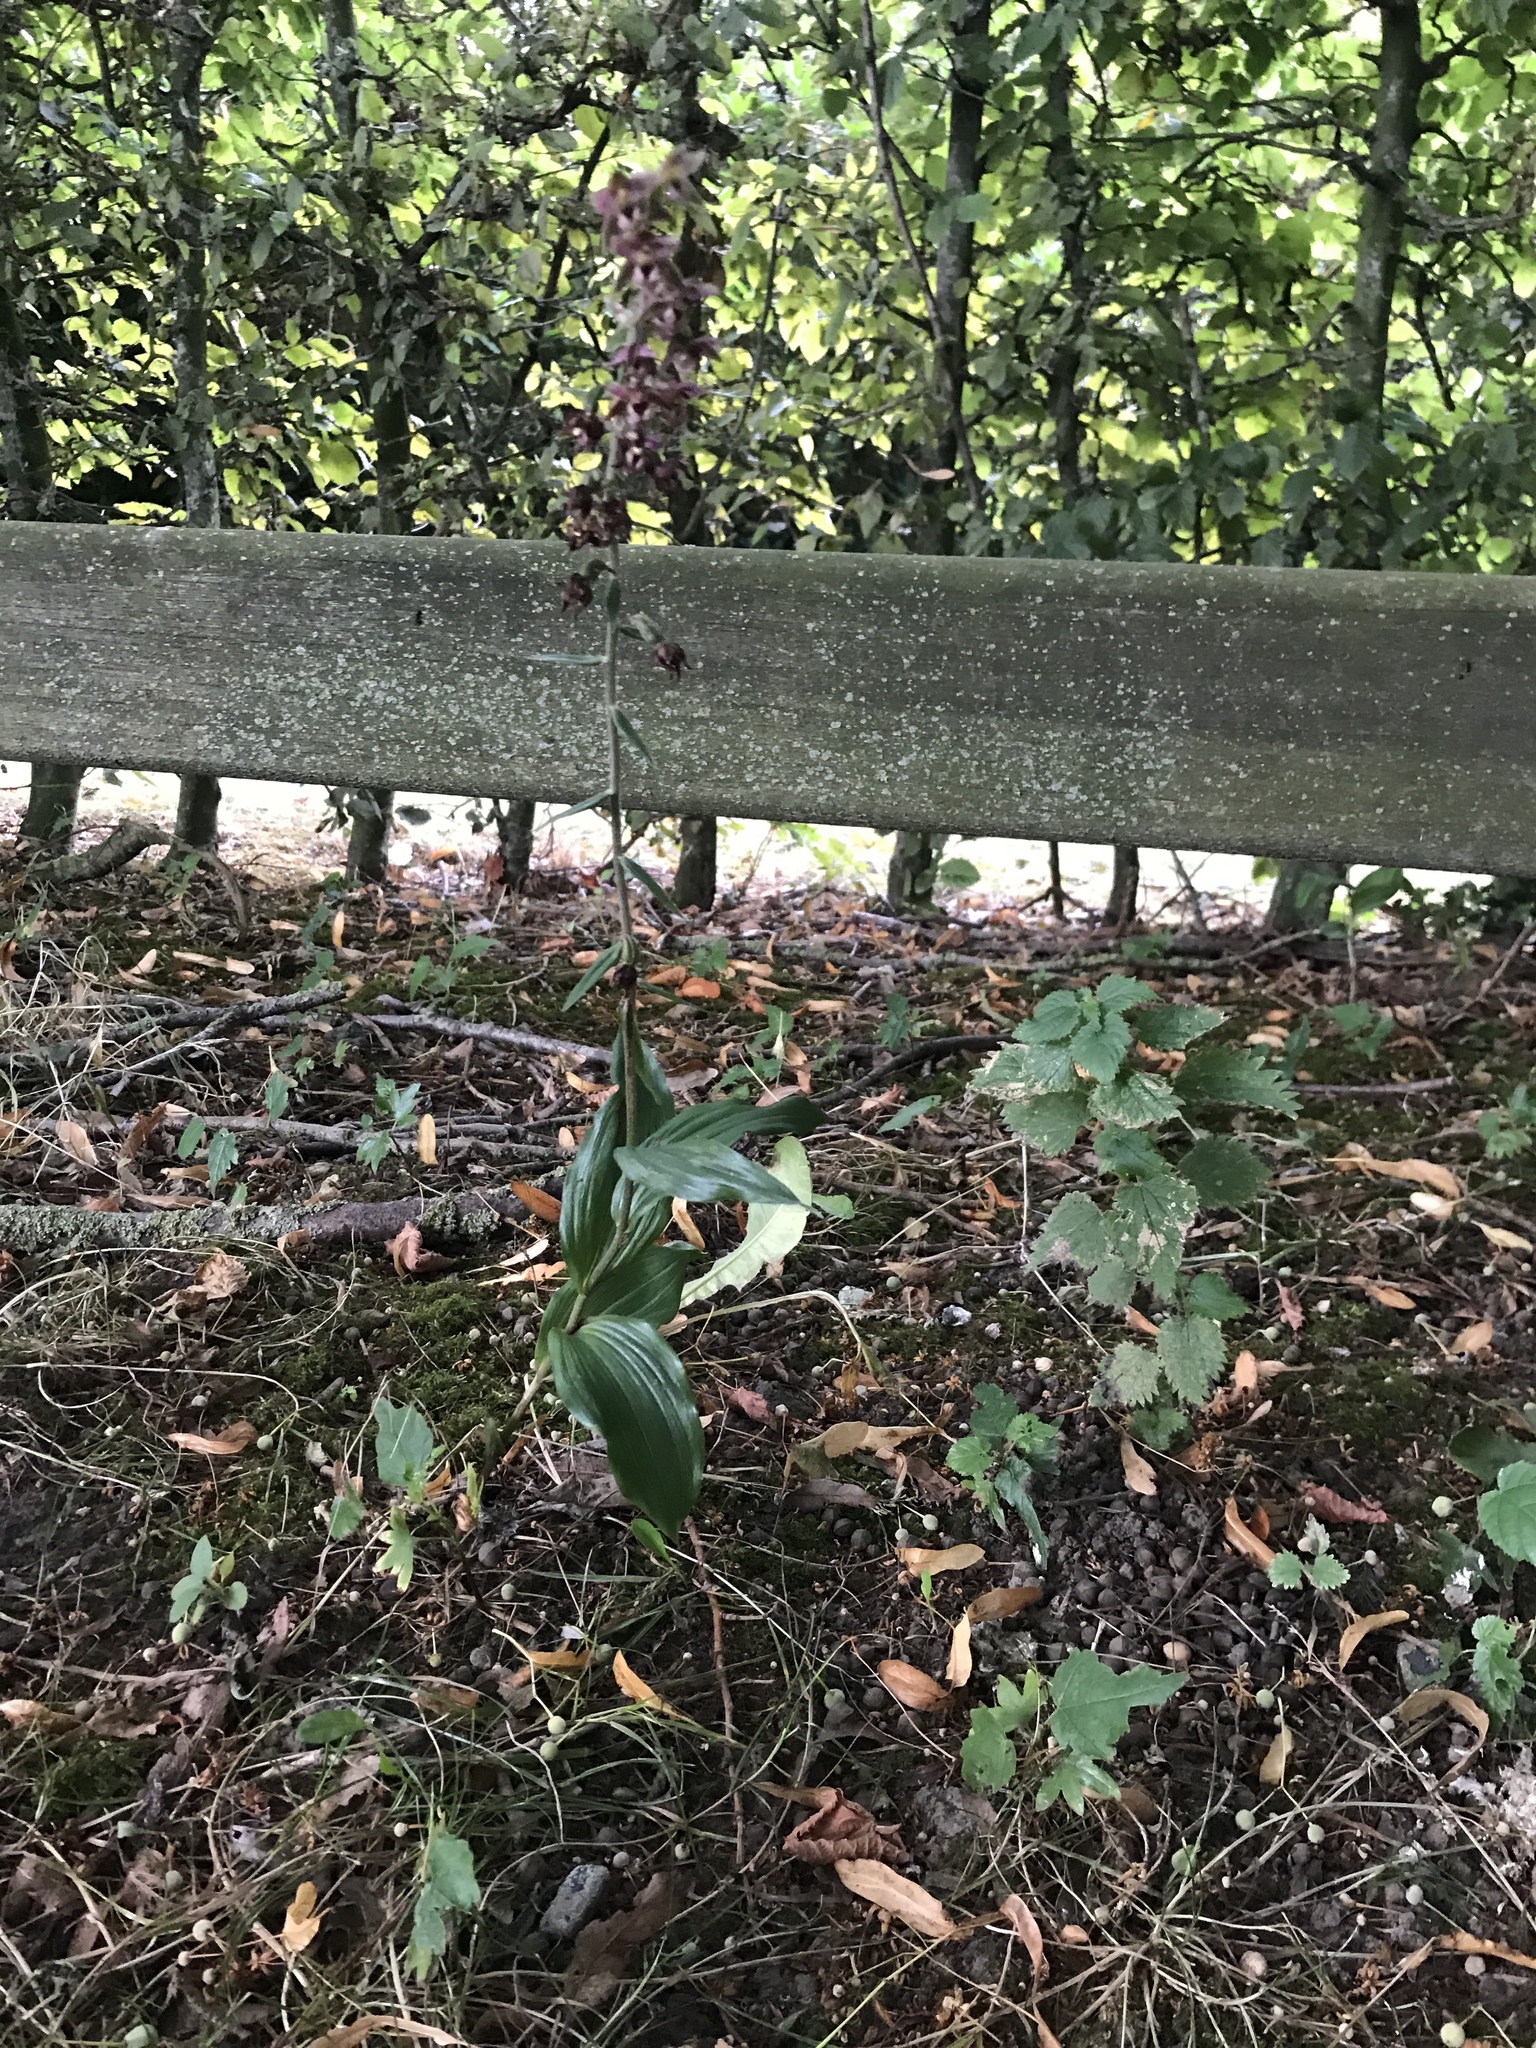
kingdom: Plantae
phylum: Tracheophyta
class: Liliopsida
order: Asparagales
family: Orchidaceae
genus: Epipactis
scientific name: Epipactis helleborine
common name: Broad-leaved helleborine
